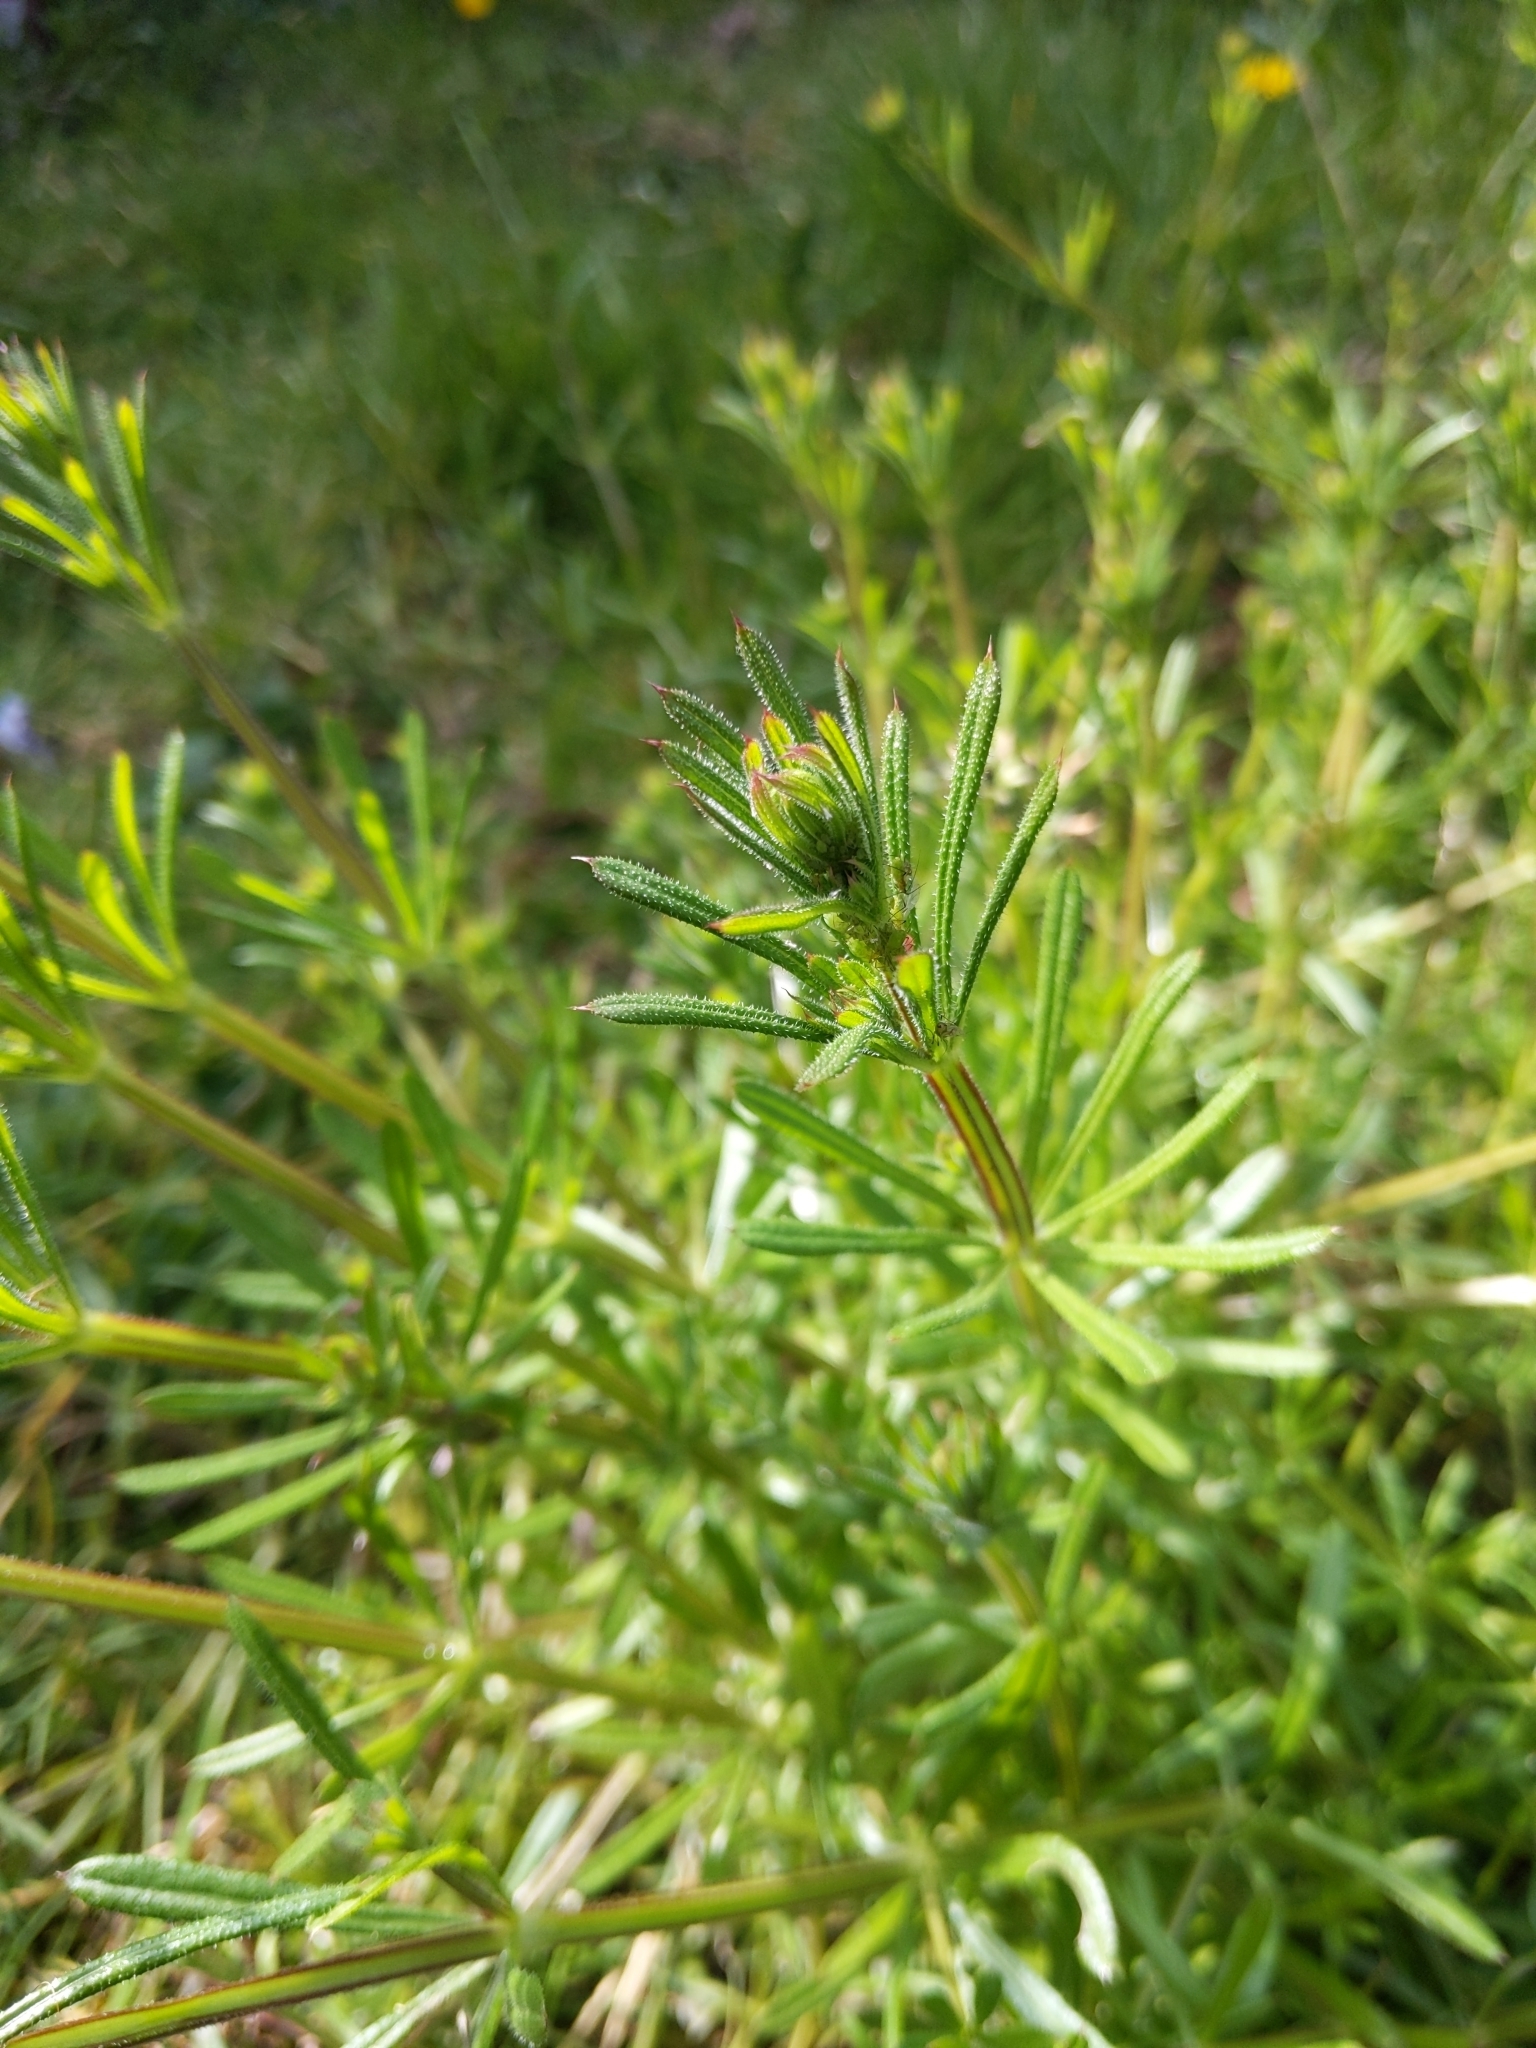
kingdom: Plantae
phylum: Tracheophyta
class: Magnoliopsida
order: Gentianales
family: Rubiaceae
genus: Galium
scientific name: Galium aparine
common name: Cleavers
